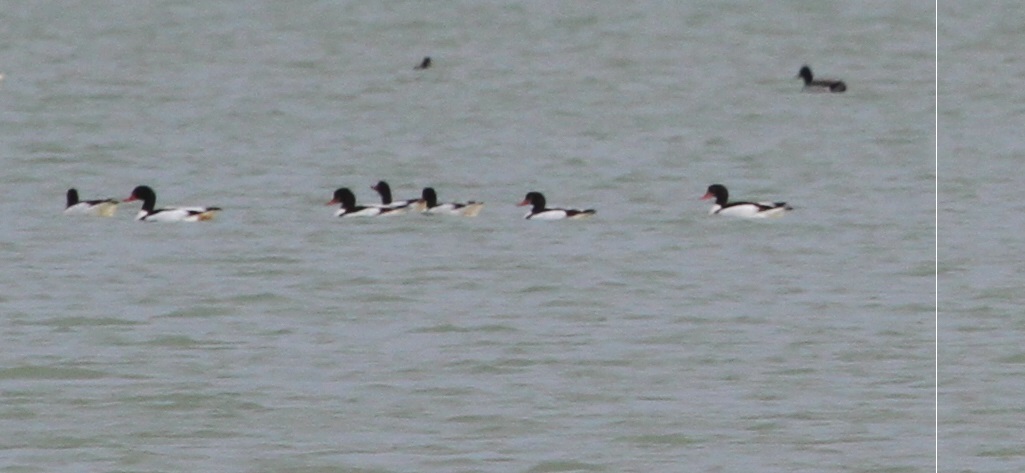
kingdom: Animalia
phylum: Chordata
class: Aves
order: Anseriformes
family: Anatidae
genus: Tadorna
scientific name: Tadorna tadorna
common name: Common shelduck
